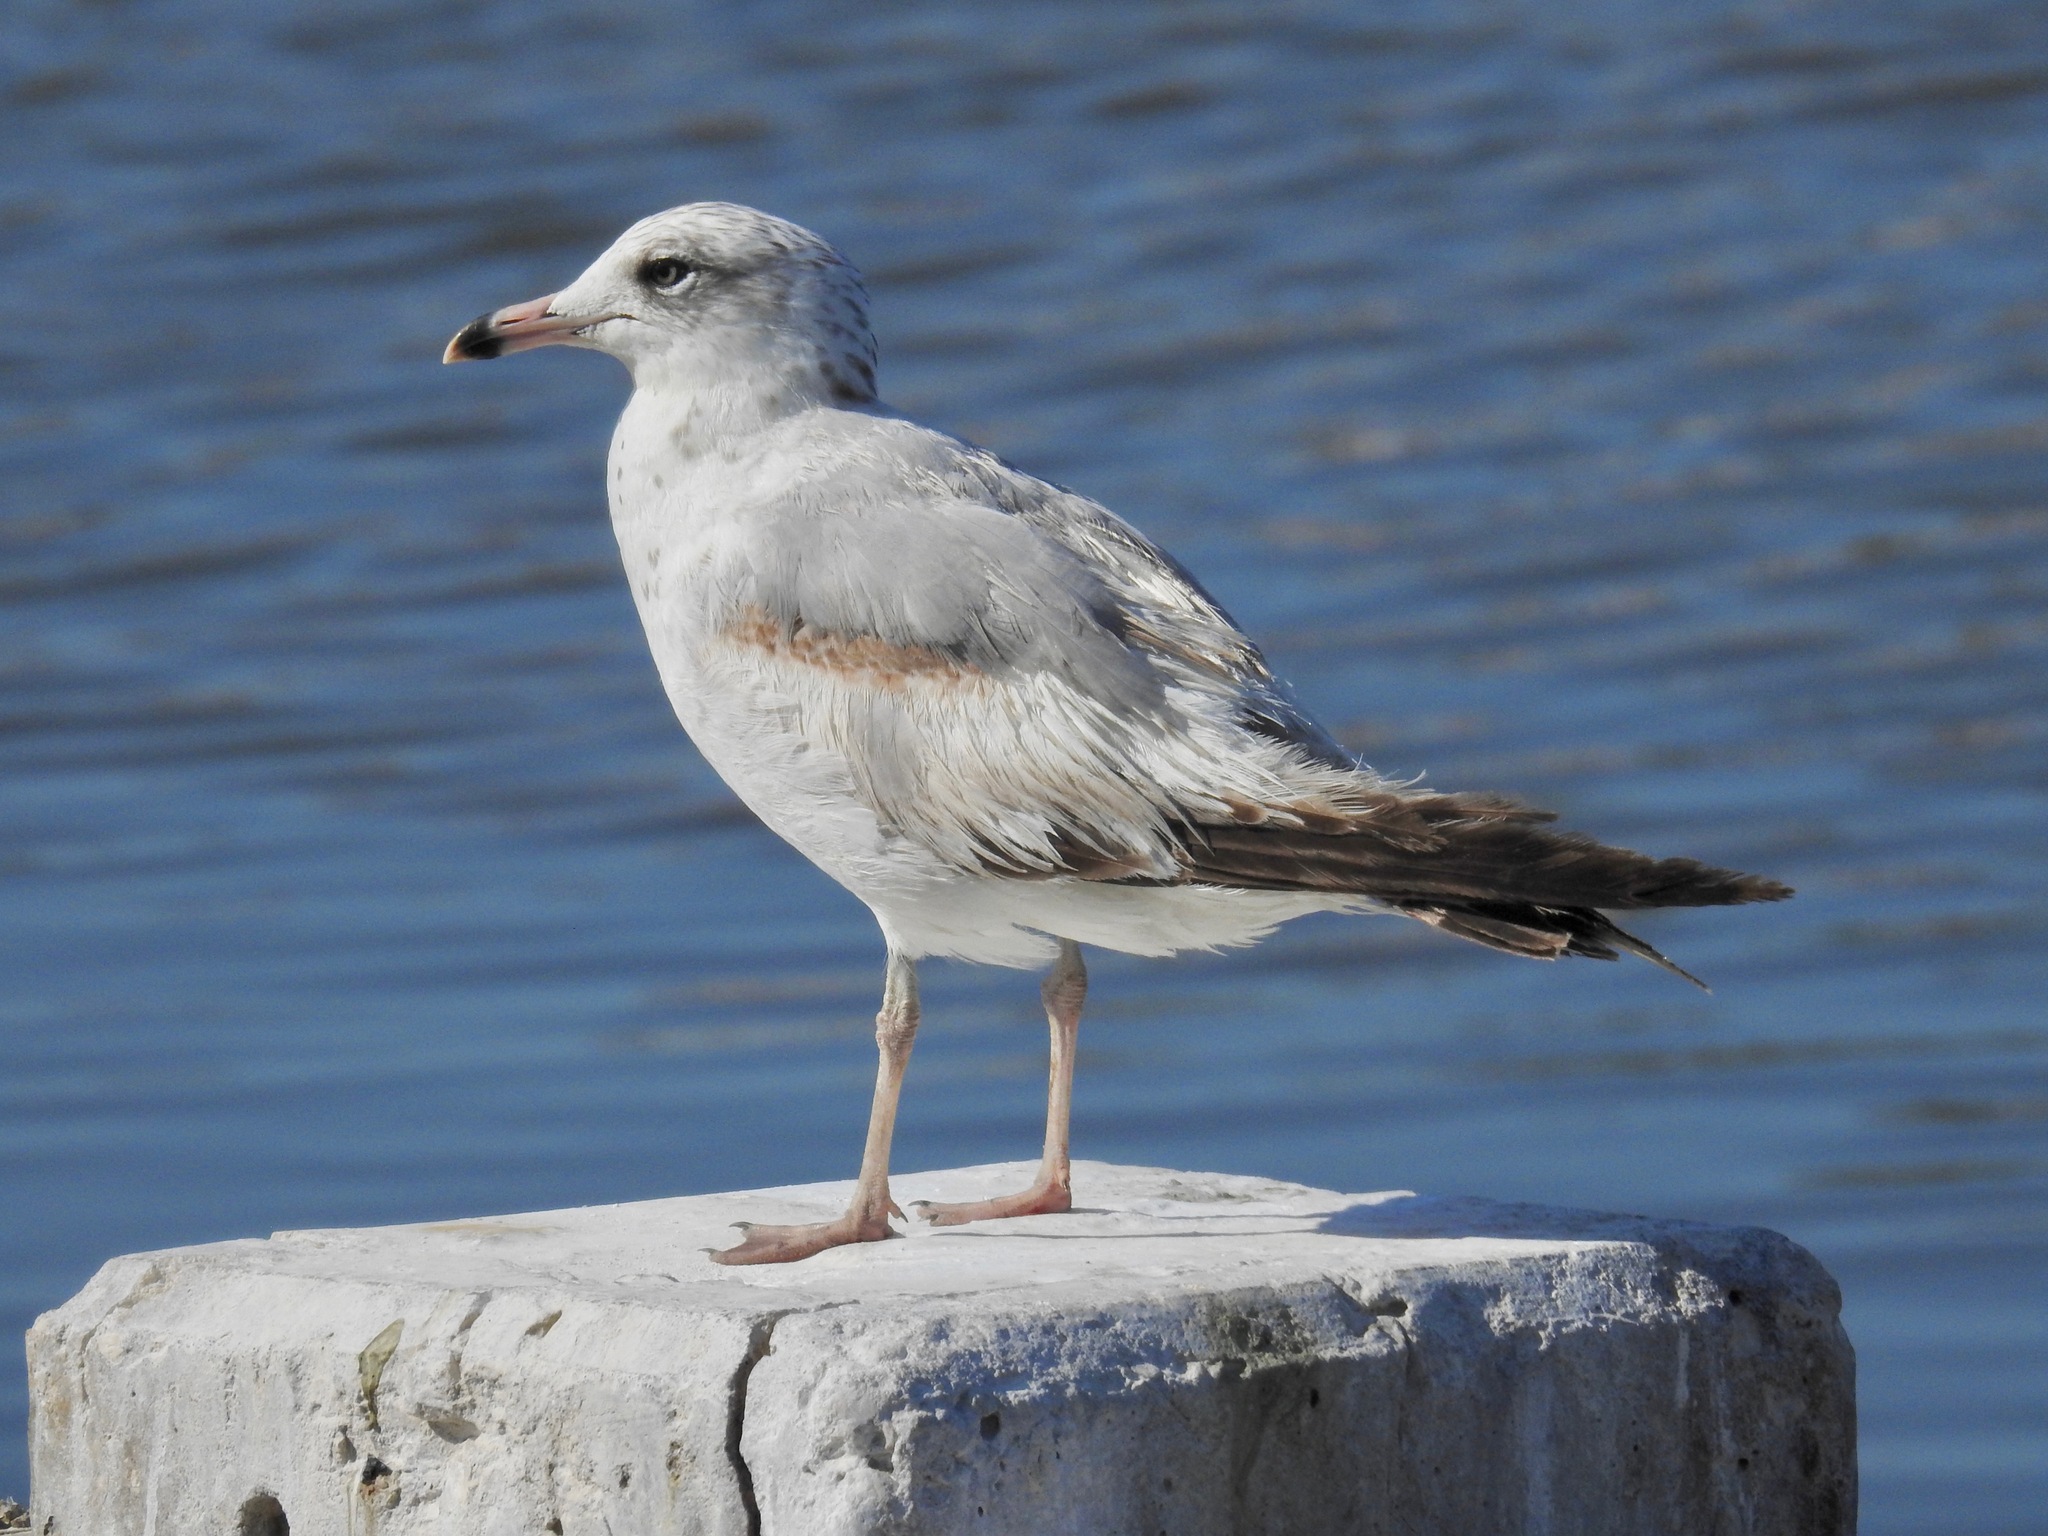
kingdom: Animalia
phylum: Chordata
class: Aves
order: Charadriiformes
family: Laridae
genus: Larus
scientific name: Larus delawarensis
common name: Ring-billed gull
